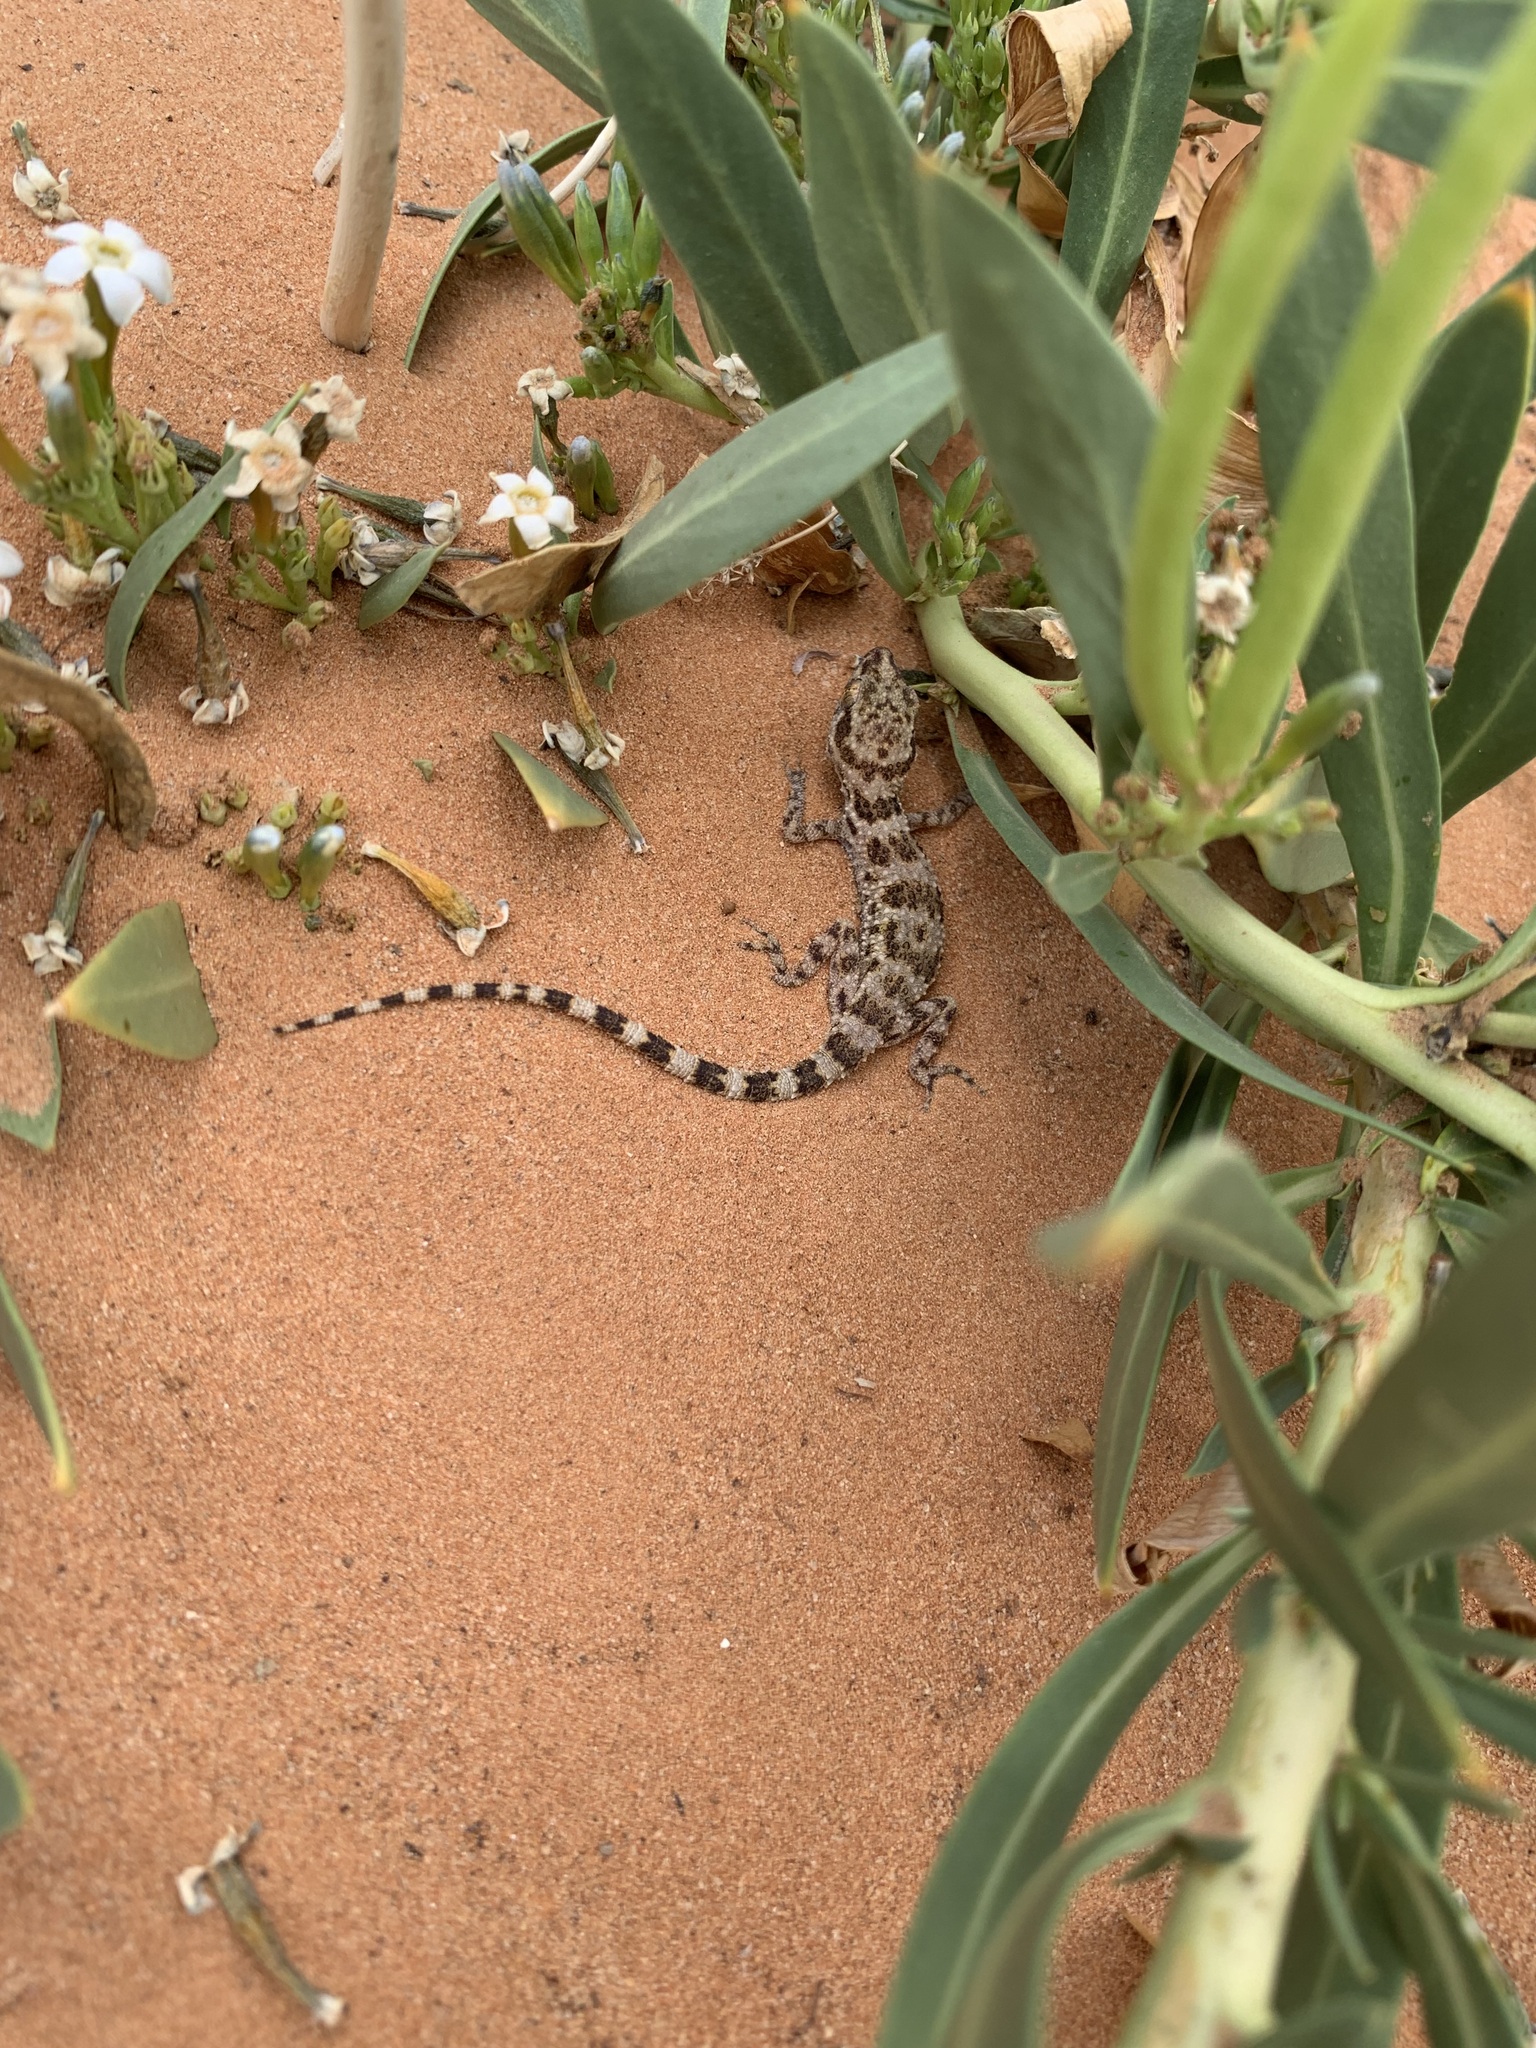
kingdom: Animalia
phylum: Chordata
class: Squamata
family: Gekkonidae
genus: Bunopus
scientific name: Bunopus tuberculatus
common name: Southern tuberculated gecko
